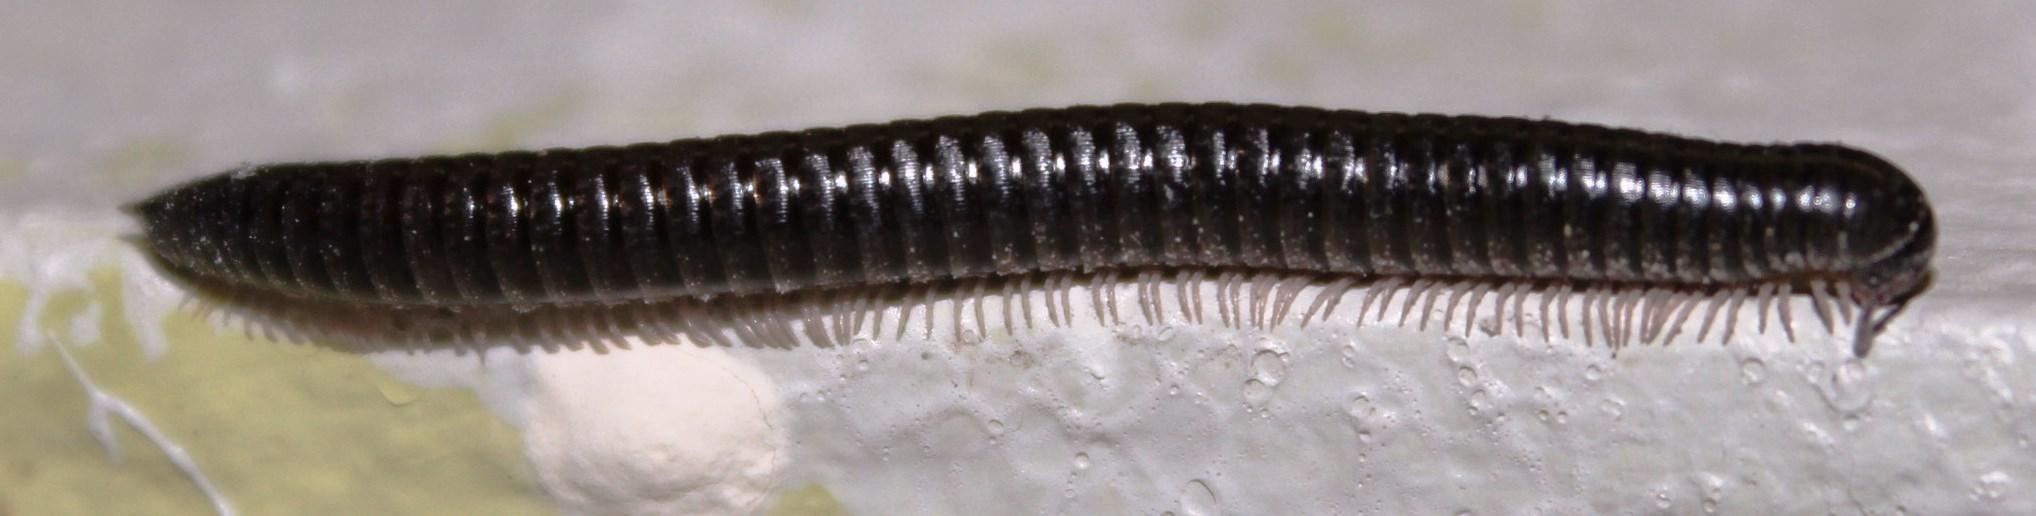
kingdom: Animalia
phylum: Arthropoda
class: Diplopoda
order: Julida
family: Julidae
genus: Ommatoiulus
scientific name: Ommatoiulus moreleti
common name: Portuguese millipede
